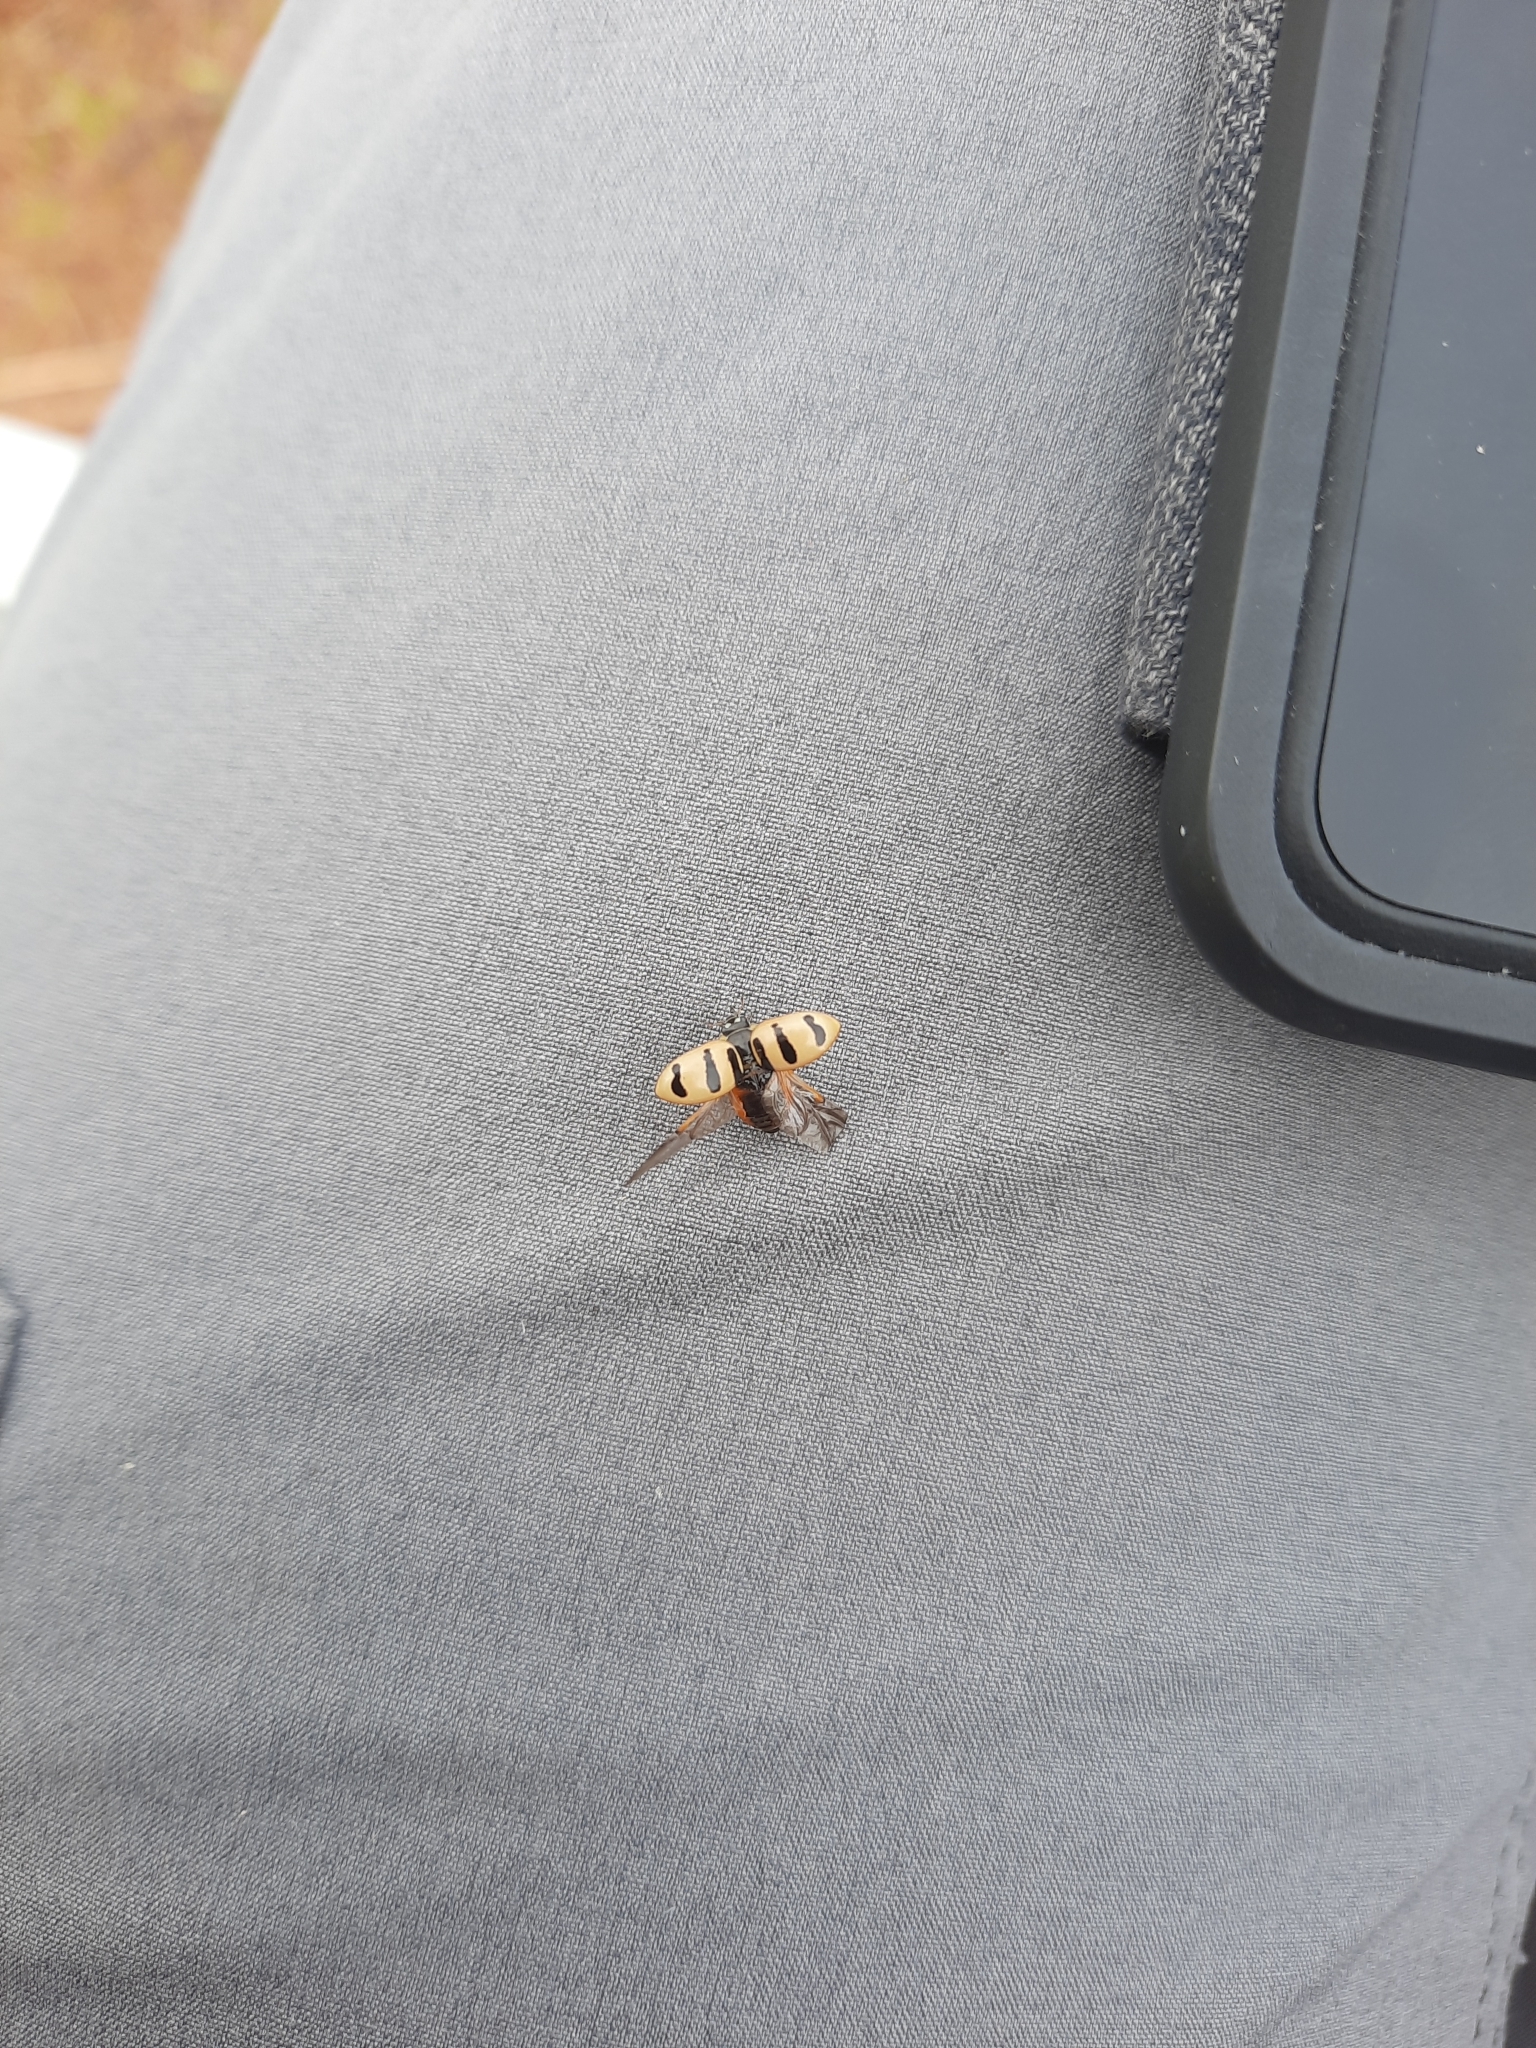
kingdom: Animalia
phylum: Arthropoda
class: Insecta
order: Coleoptera
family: Coccinellidae
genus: Coccinella
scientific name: Coccinella trifasciata
